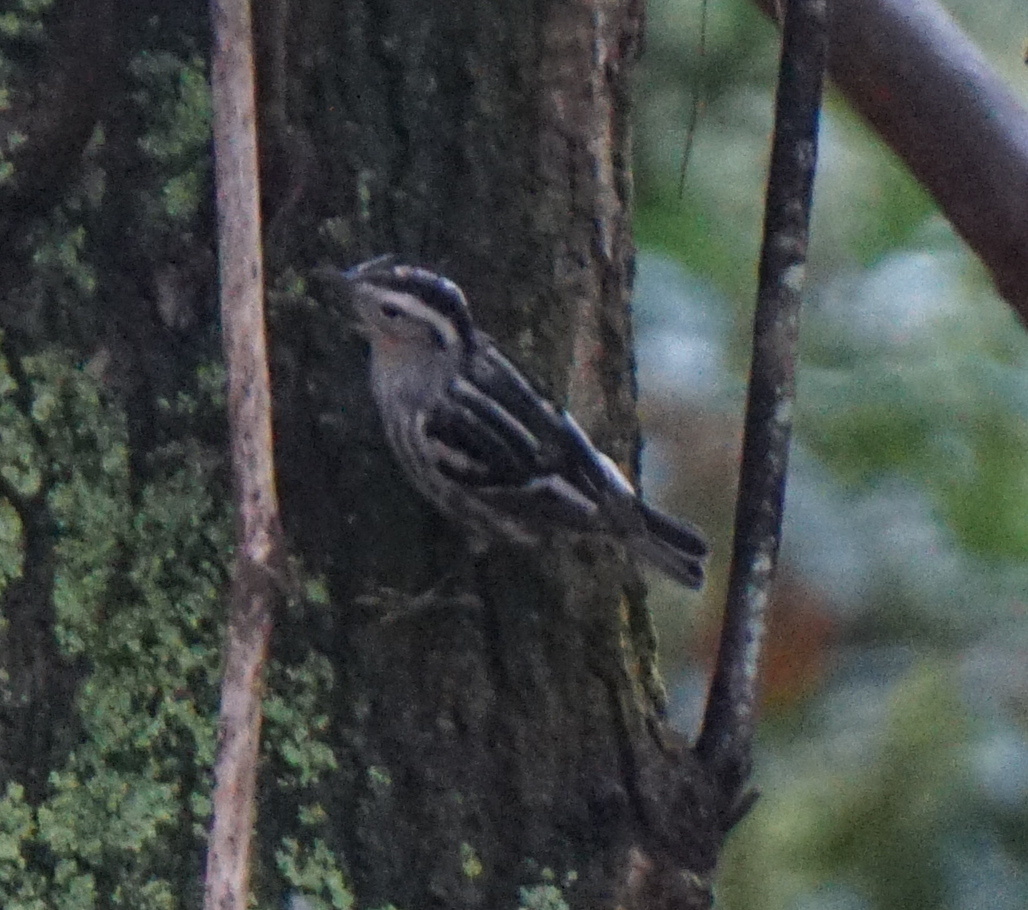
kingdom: Animalia
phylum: Chordata
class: Aves
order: Passeriformes
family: Parulidae
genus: Mniotilta
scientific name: Mniotilta varia
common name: Black-and-white warbler
